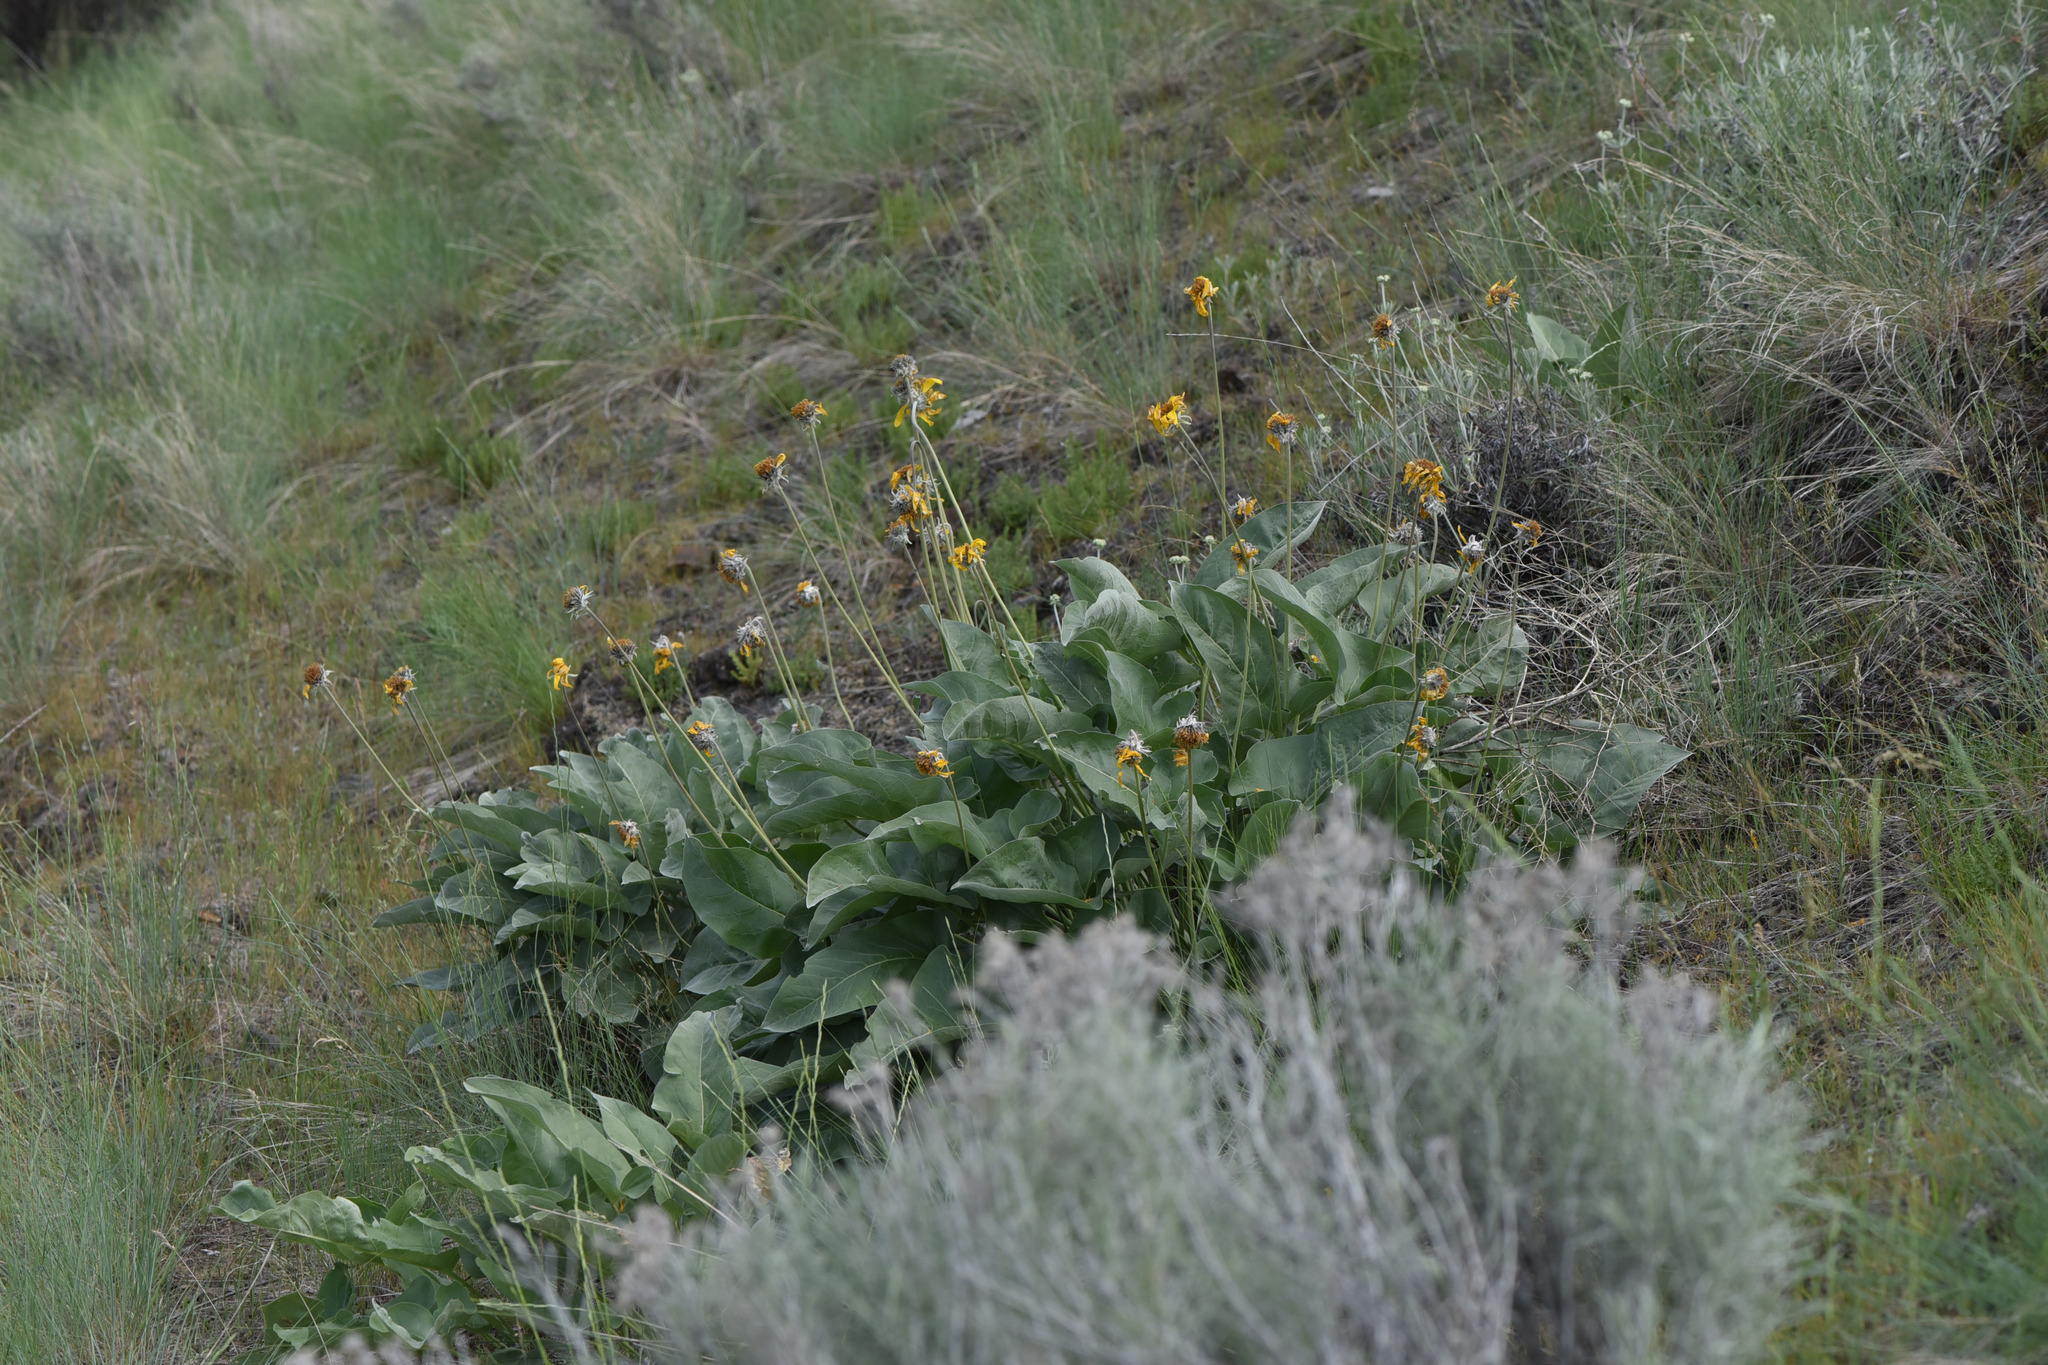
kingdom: Plantae
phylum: Tracheophyta
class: Magnoliopsida
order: Asterales
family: Asteraceae
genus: Wyethia
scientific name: Wyethia sagittata
